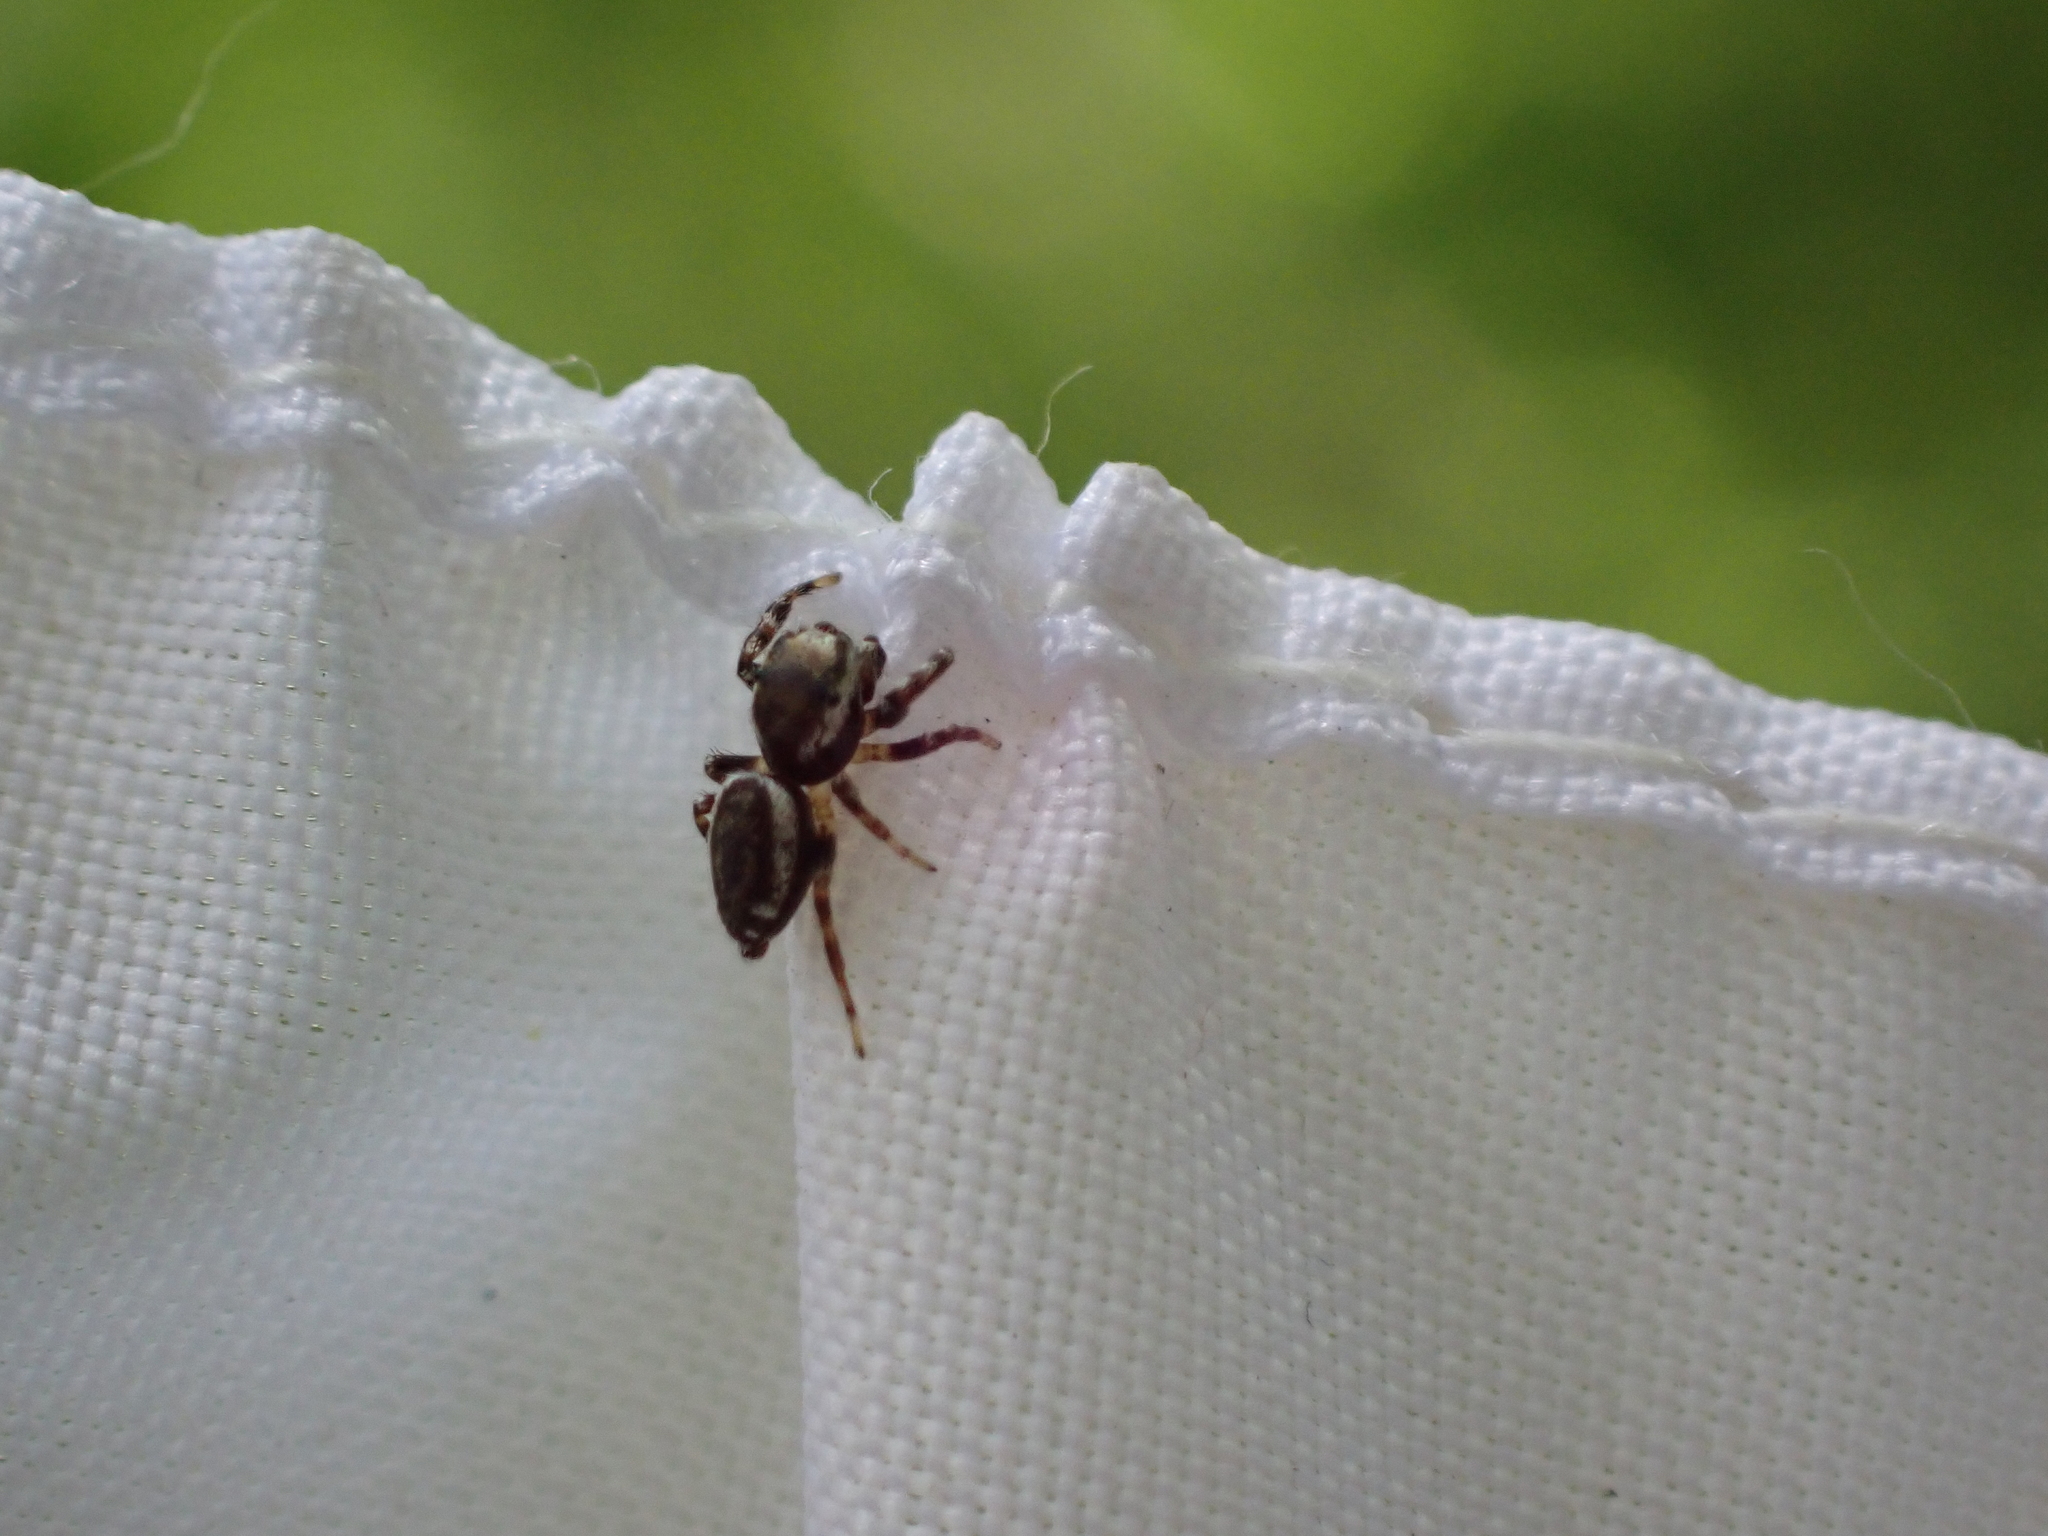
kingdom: Animalia
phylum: Arthropoda
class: Arachnida
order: Araneae
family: Salticidae
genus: Pelegrina
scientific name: Pelegrina proterva
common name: Common white-cheeked jumping spider
